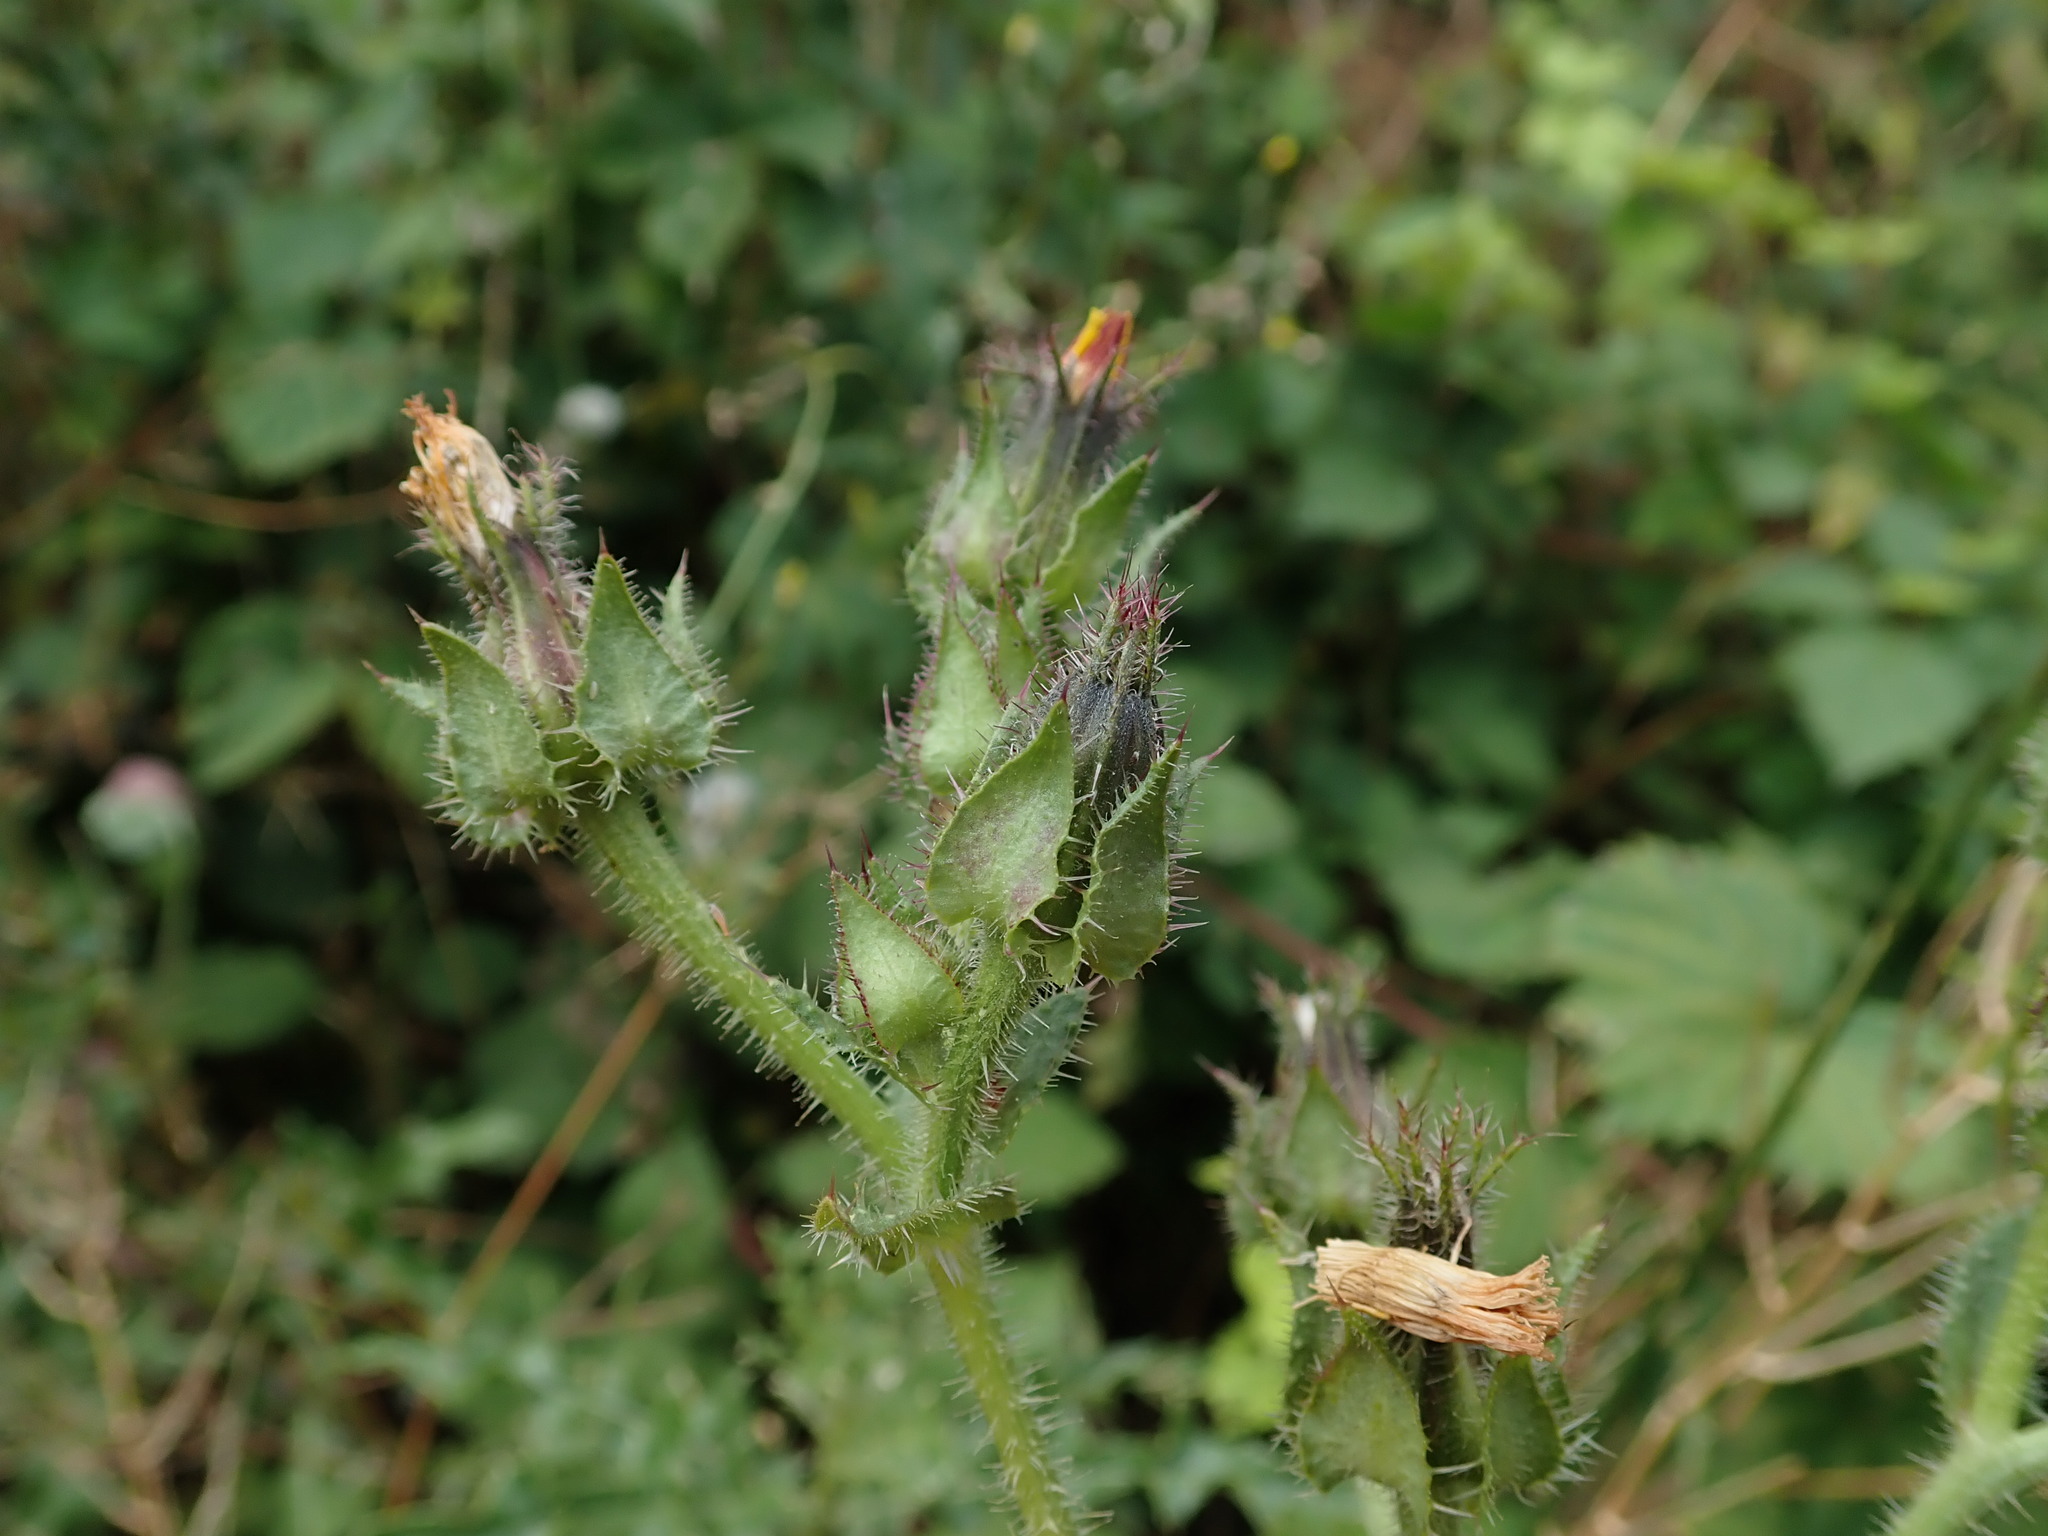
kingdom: Plantae
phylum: Tracheophyta
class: Magnoliopsida
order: Asterales
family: Asteraceae
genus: Helminthotheca
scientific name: Helminthotheca echioides
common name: Ox-tongue
